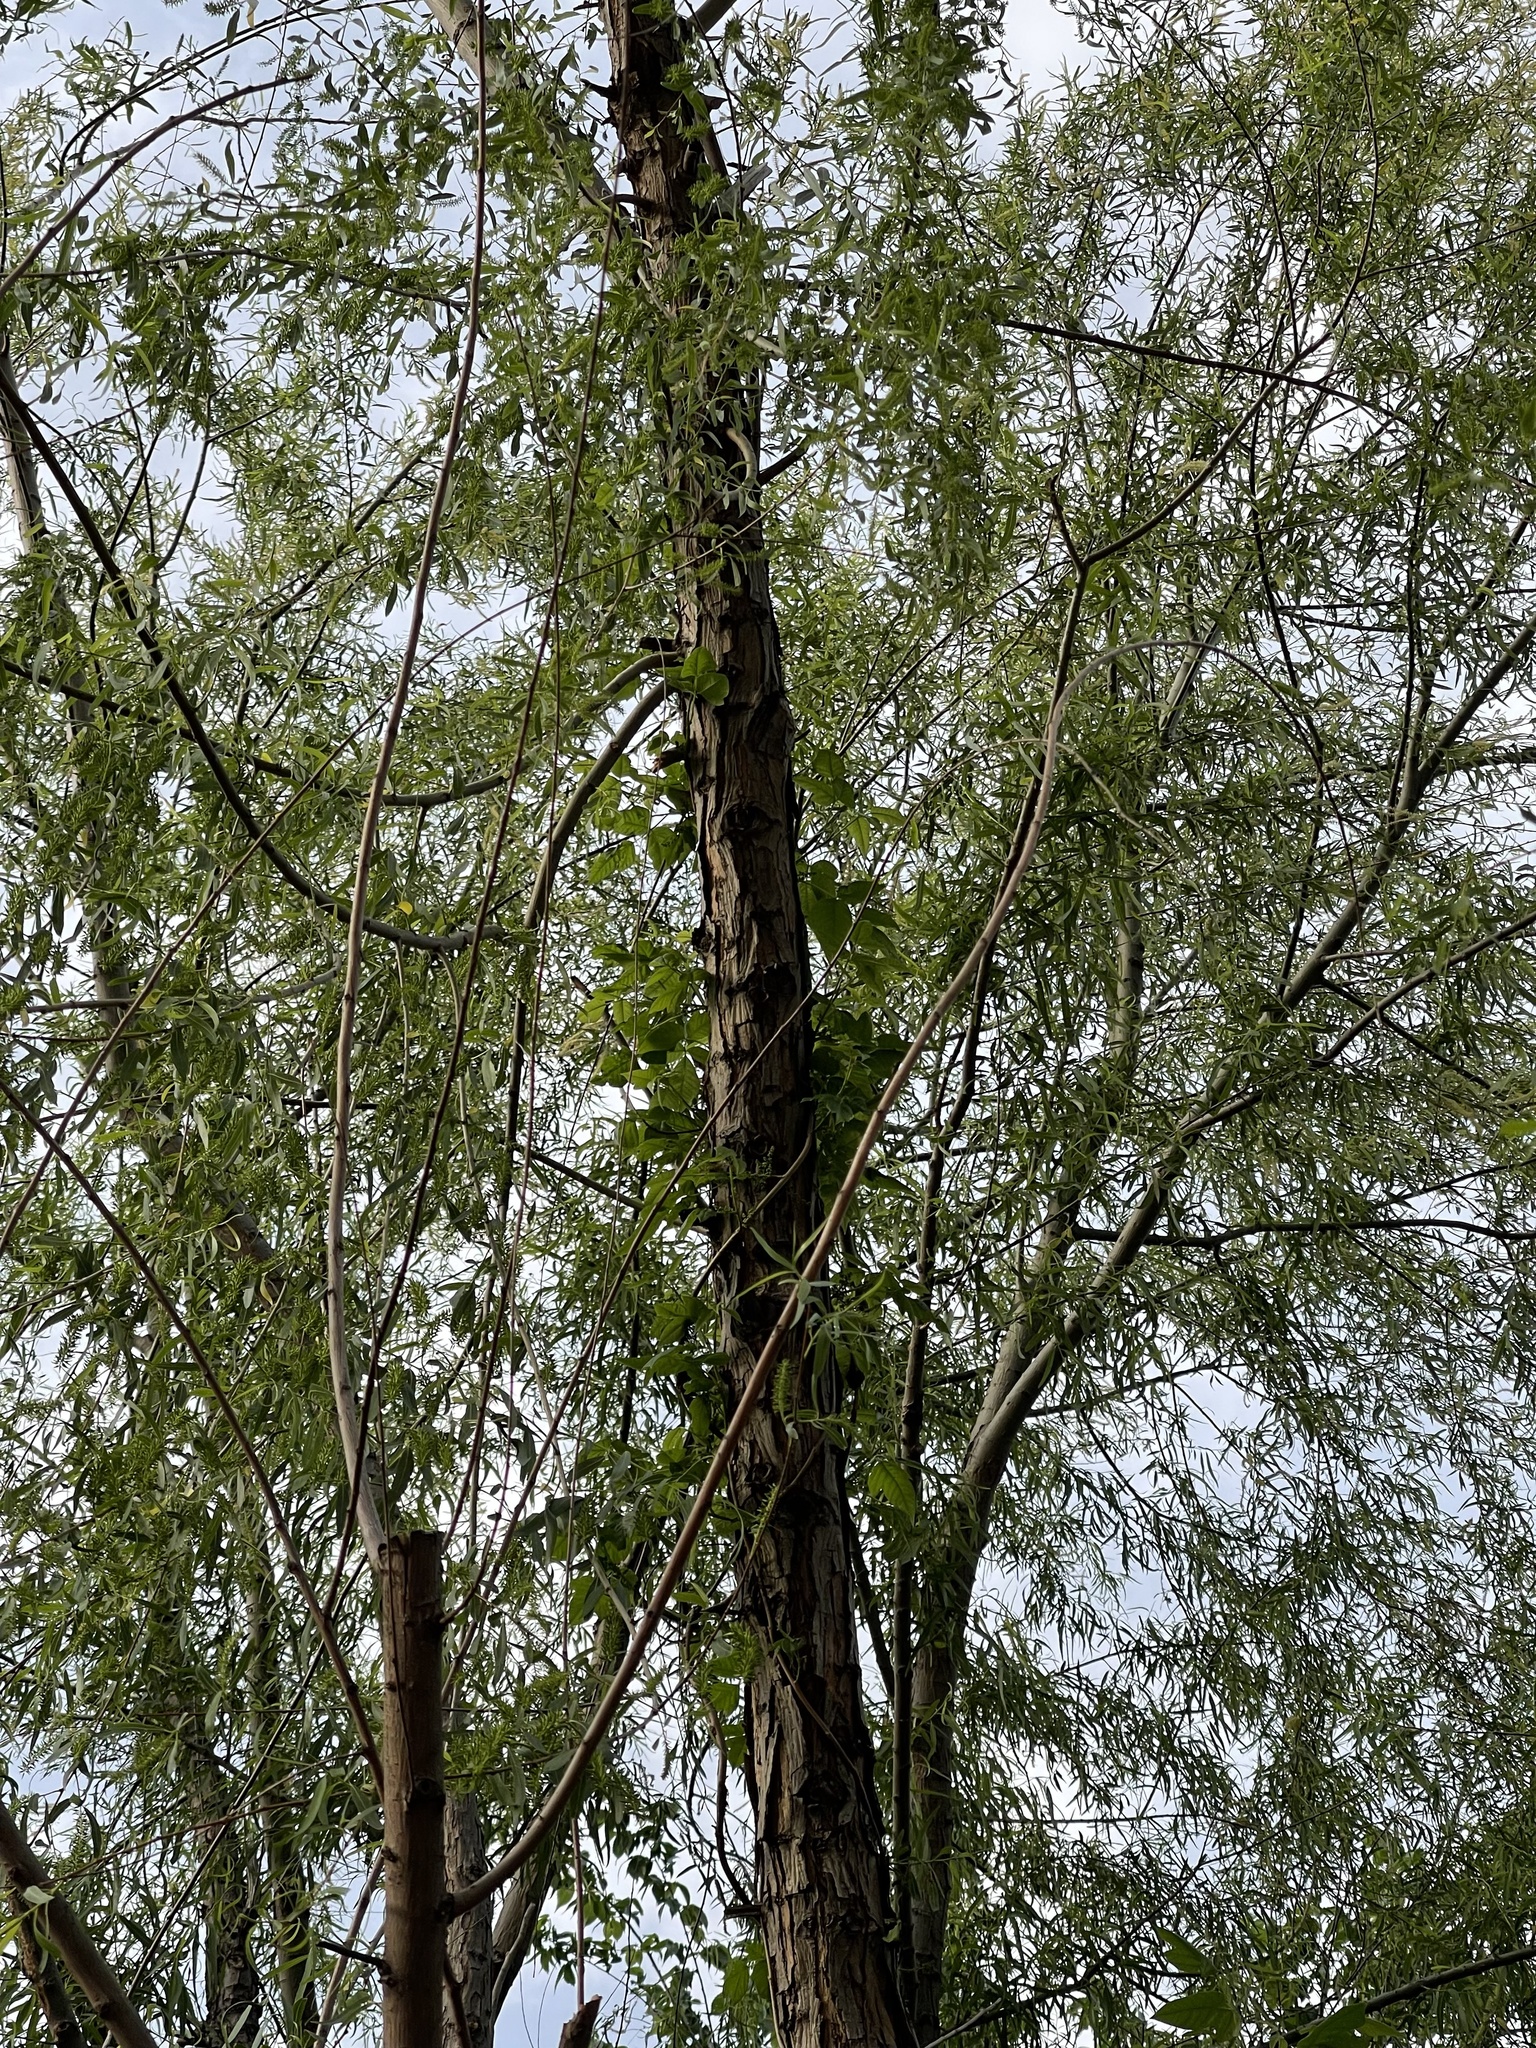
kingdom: Plantae
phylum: Tracheophyta
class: Magnoliopsida
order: Malpighiales
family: Salicaceae
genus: Salix
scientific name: Salix nigra
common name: Black willow
